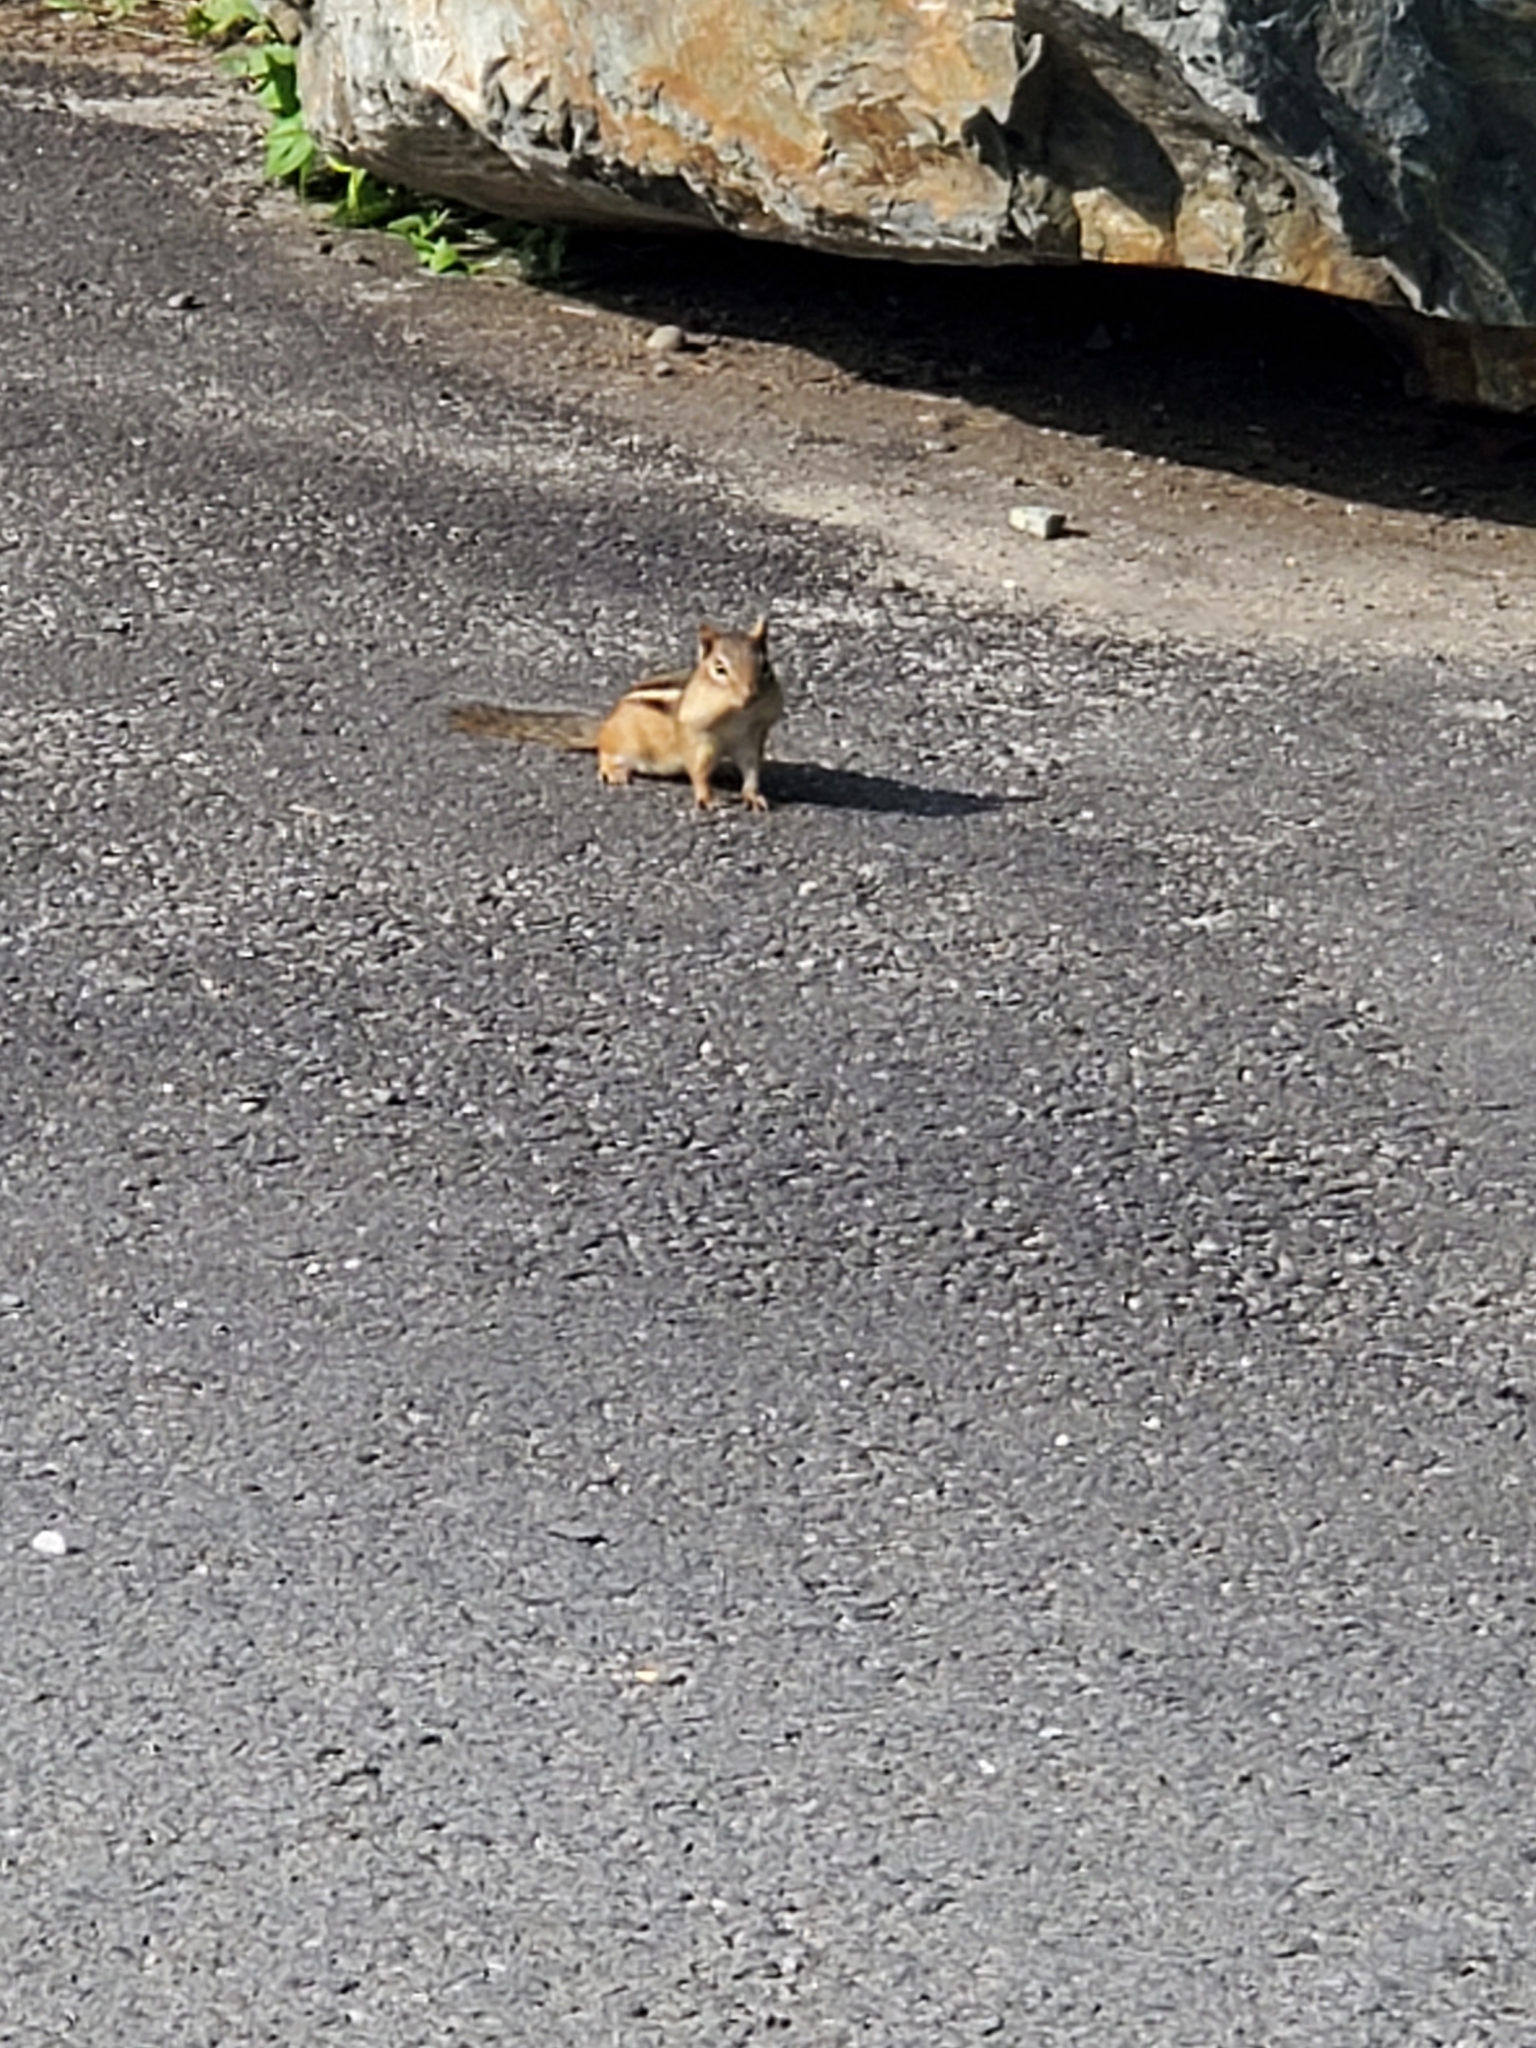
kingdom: Animalia
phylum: Chordata
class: Mammalia
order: Rodentia
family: Sciuridae
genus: Tamias
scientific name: Tamias striatus
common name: Eastern chipmunk
